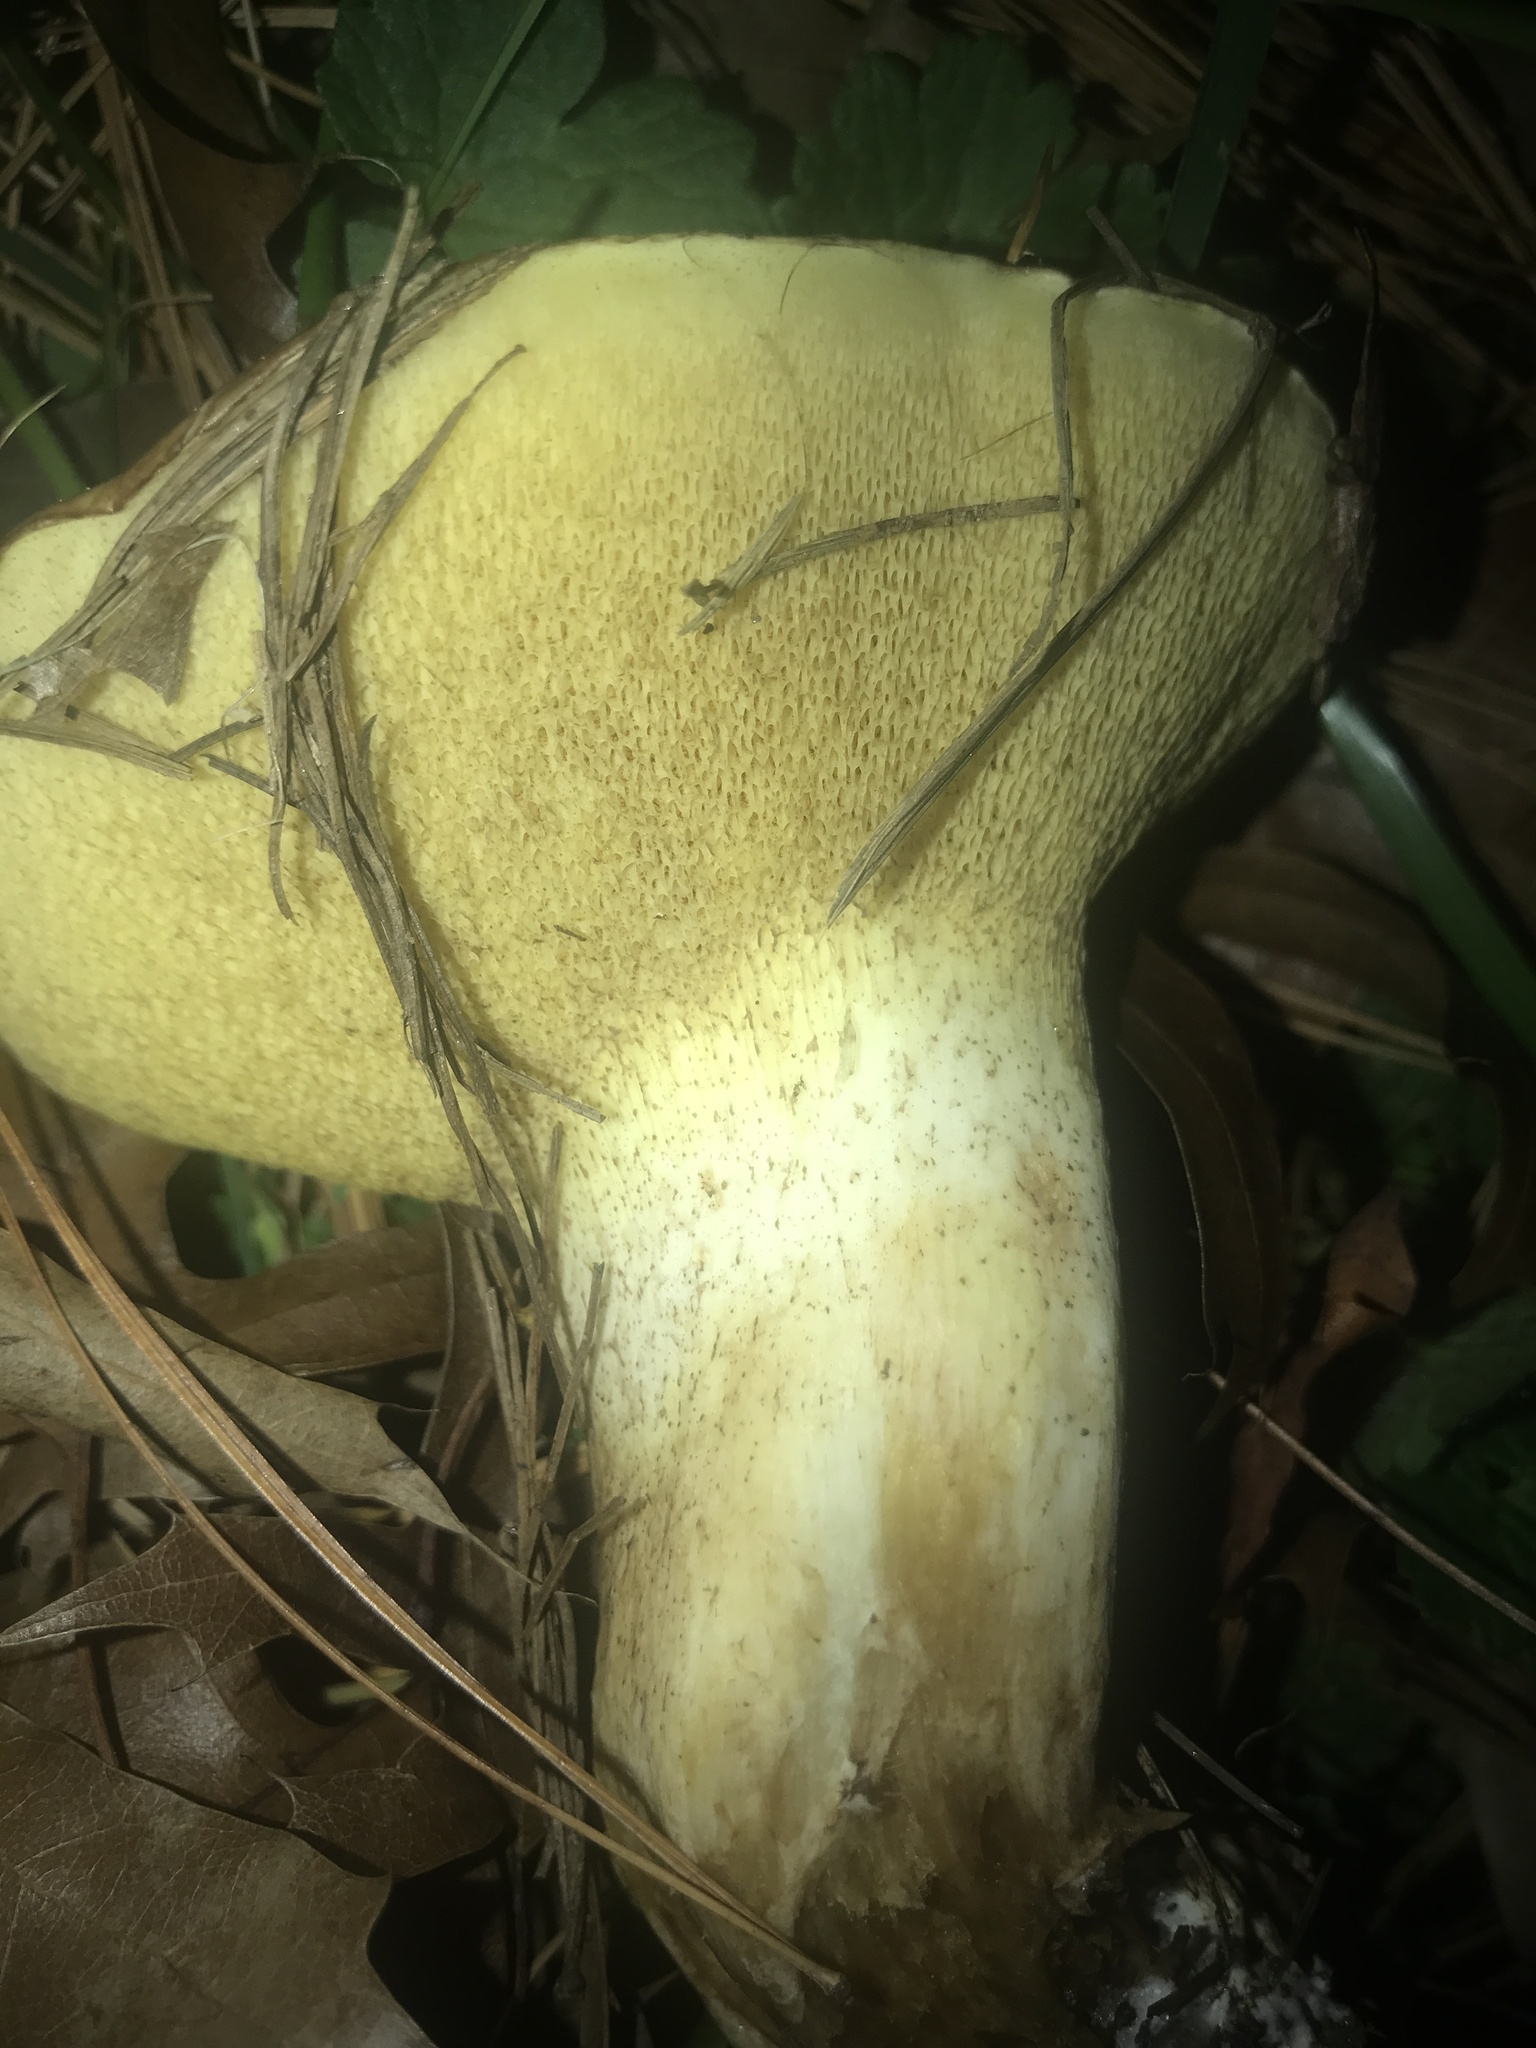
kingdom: Fungi
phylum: Basidiomycota
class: Agaricomycetes
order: Boletales
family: Suillaceae
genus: Fuscoboletinus
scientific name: Fuscoboletinus weaverae
